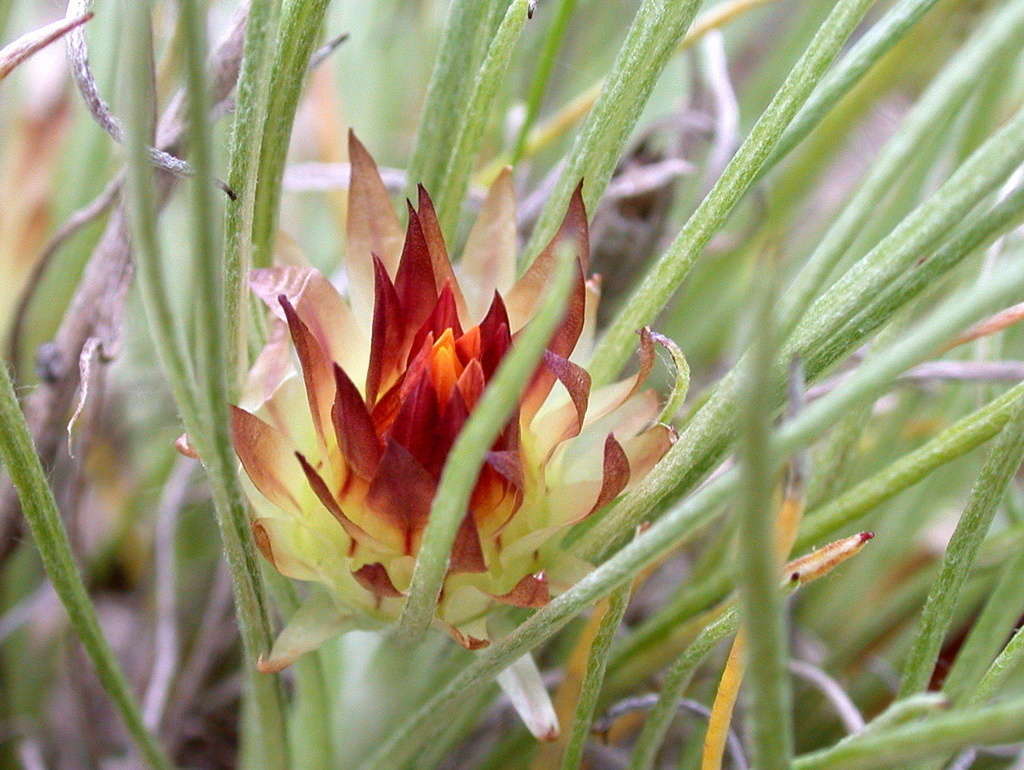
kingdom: Plantae
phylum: Tracheophyta
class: Magnoliopsida
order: Asterales
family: Asteraceae
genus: Leucochrysum
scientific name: Leucochrysum albicans
